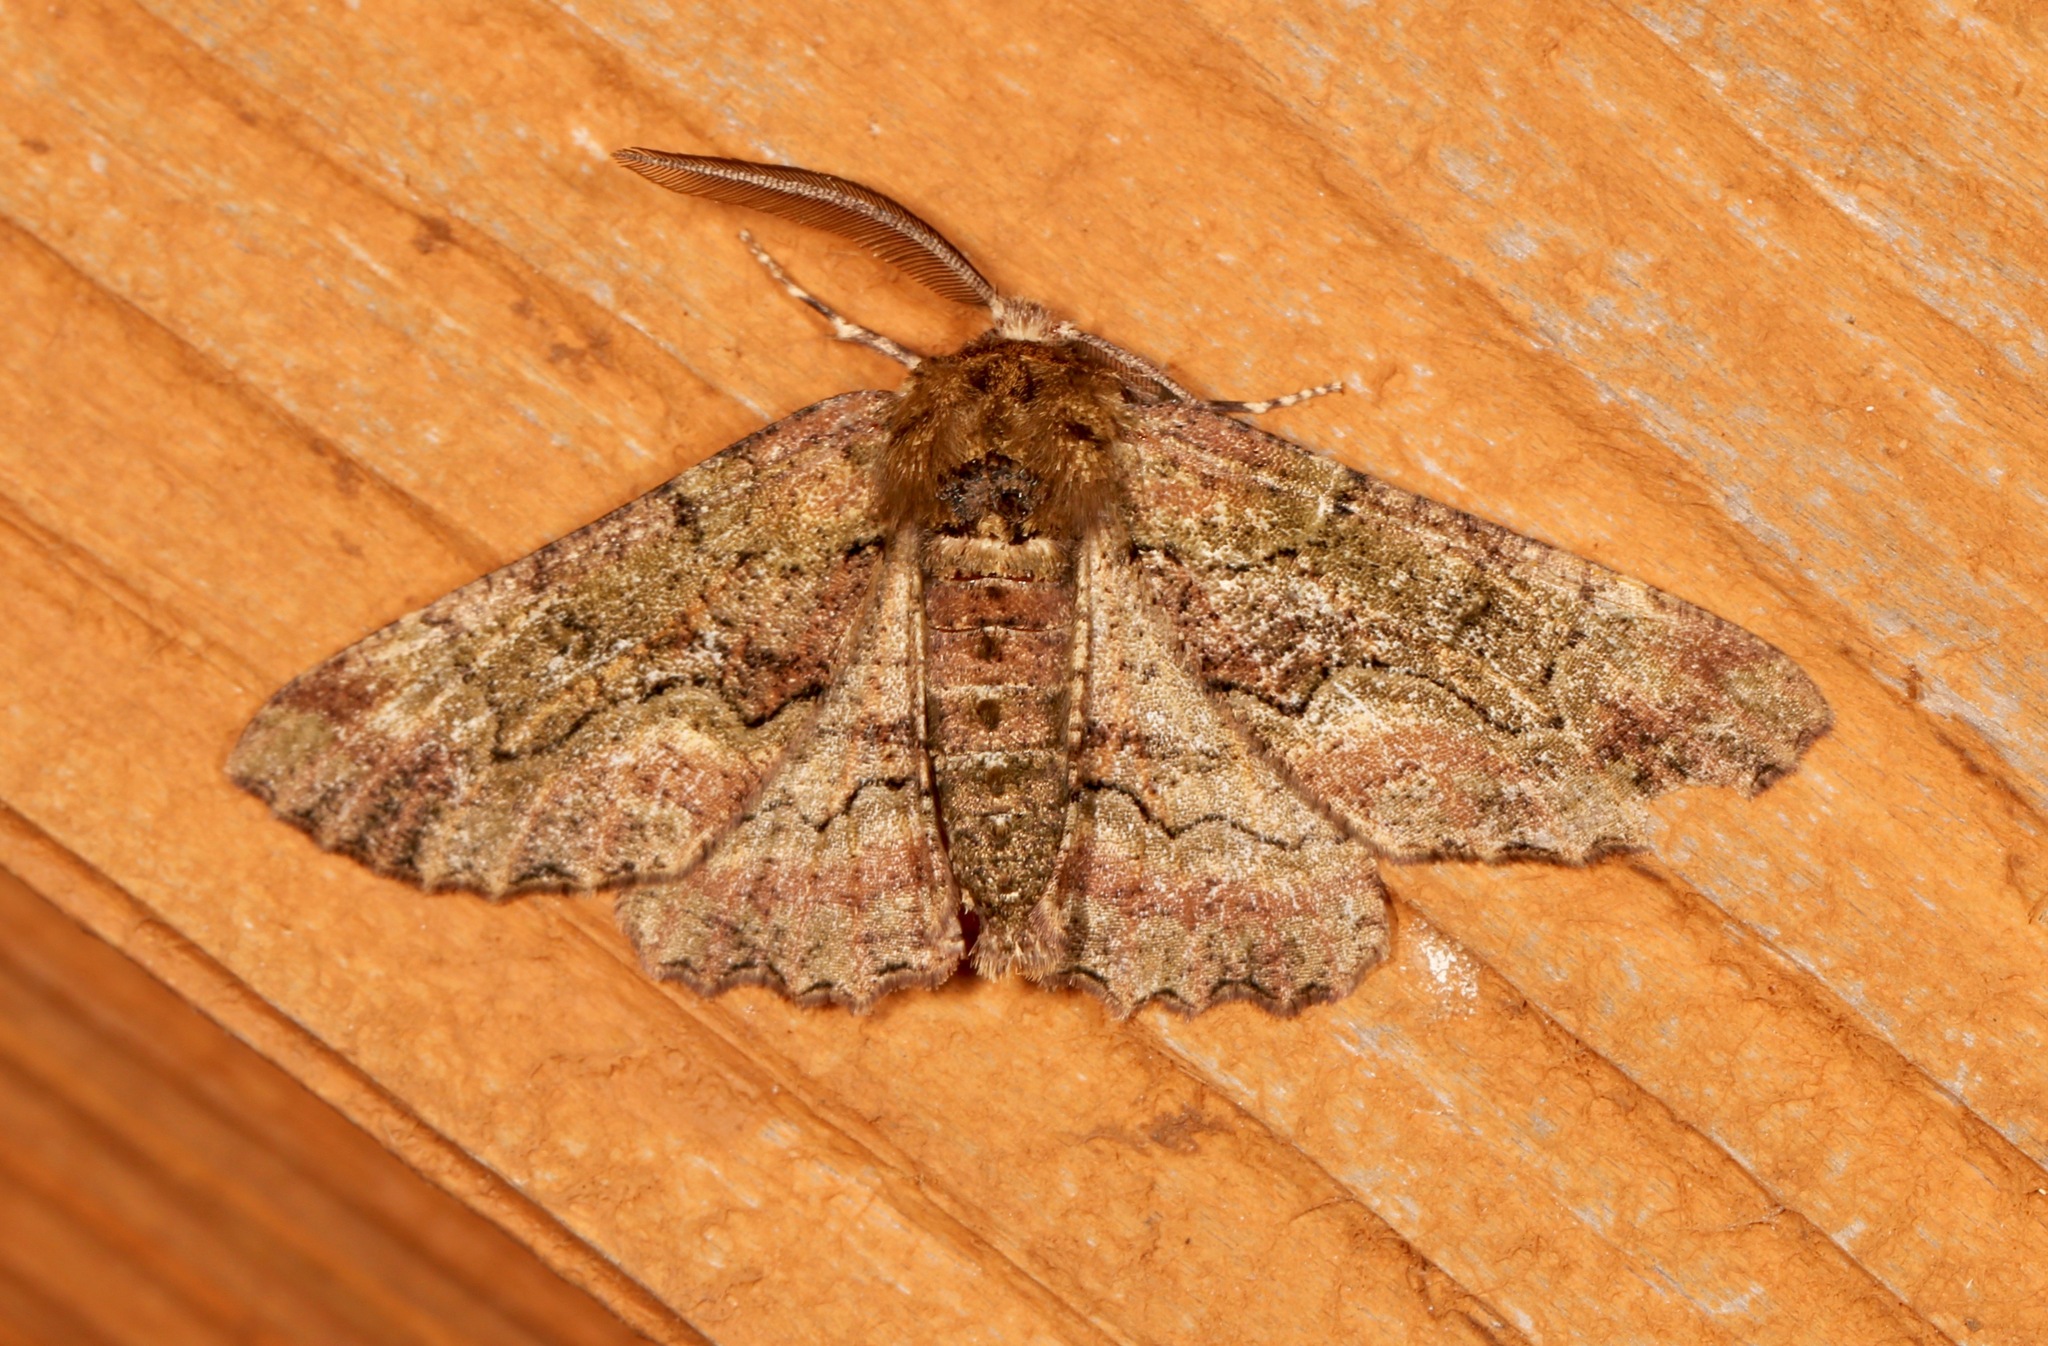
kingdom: Animalia
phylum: Arthropoda
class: Insecta
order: Lepidoptera
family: Geometridae
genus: Phaeoura
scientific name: Phaeoura quernaria
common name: Oak beauty
